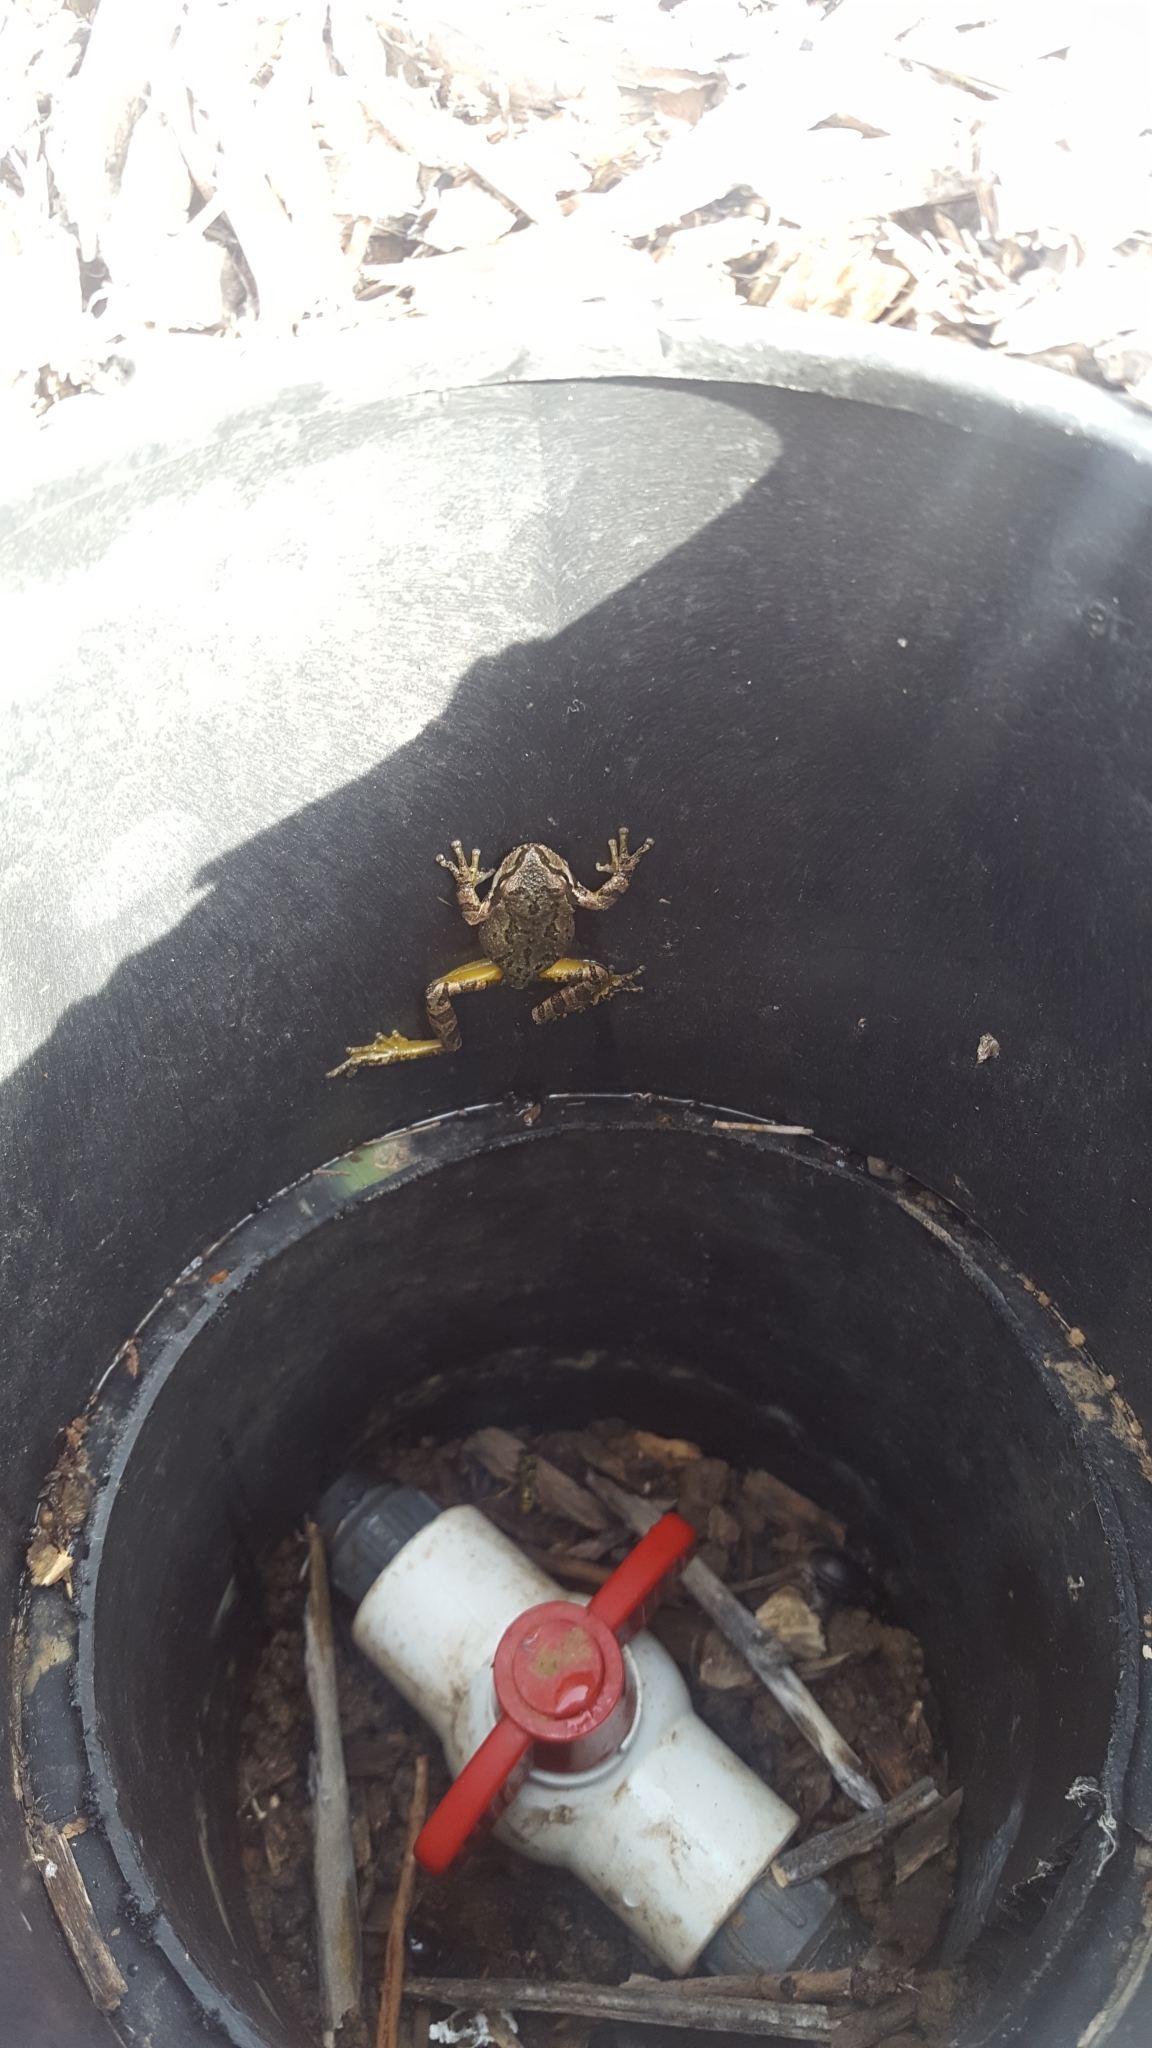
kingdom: Animalia
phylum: Chordata
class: Amphibia
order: Anura
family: Hylidae
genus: Pseudacris
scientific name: Pseudacris regilla
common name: Pacific chorus frog
